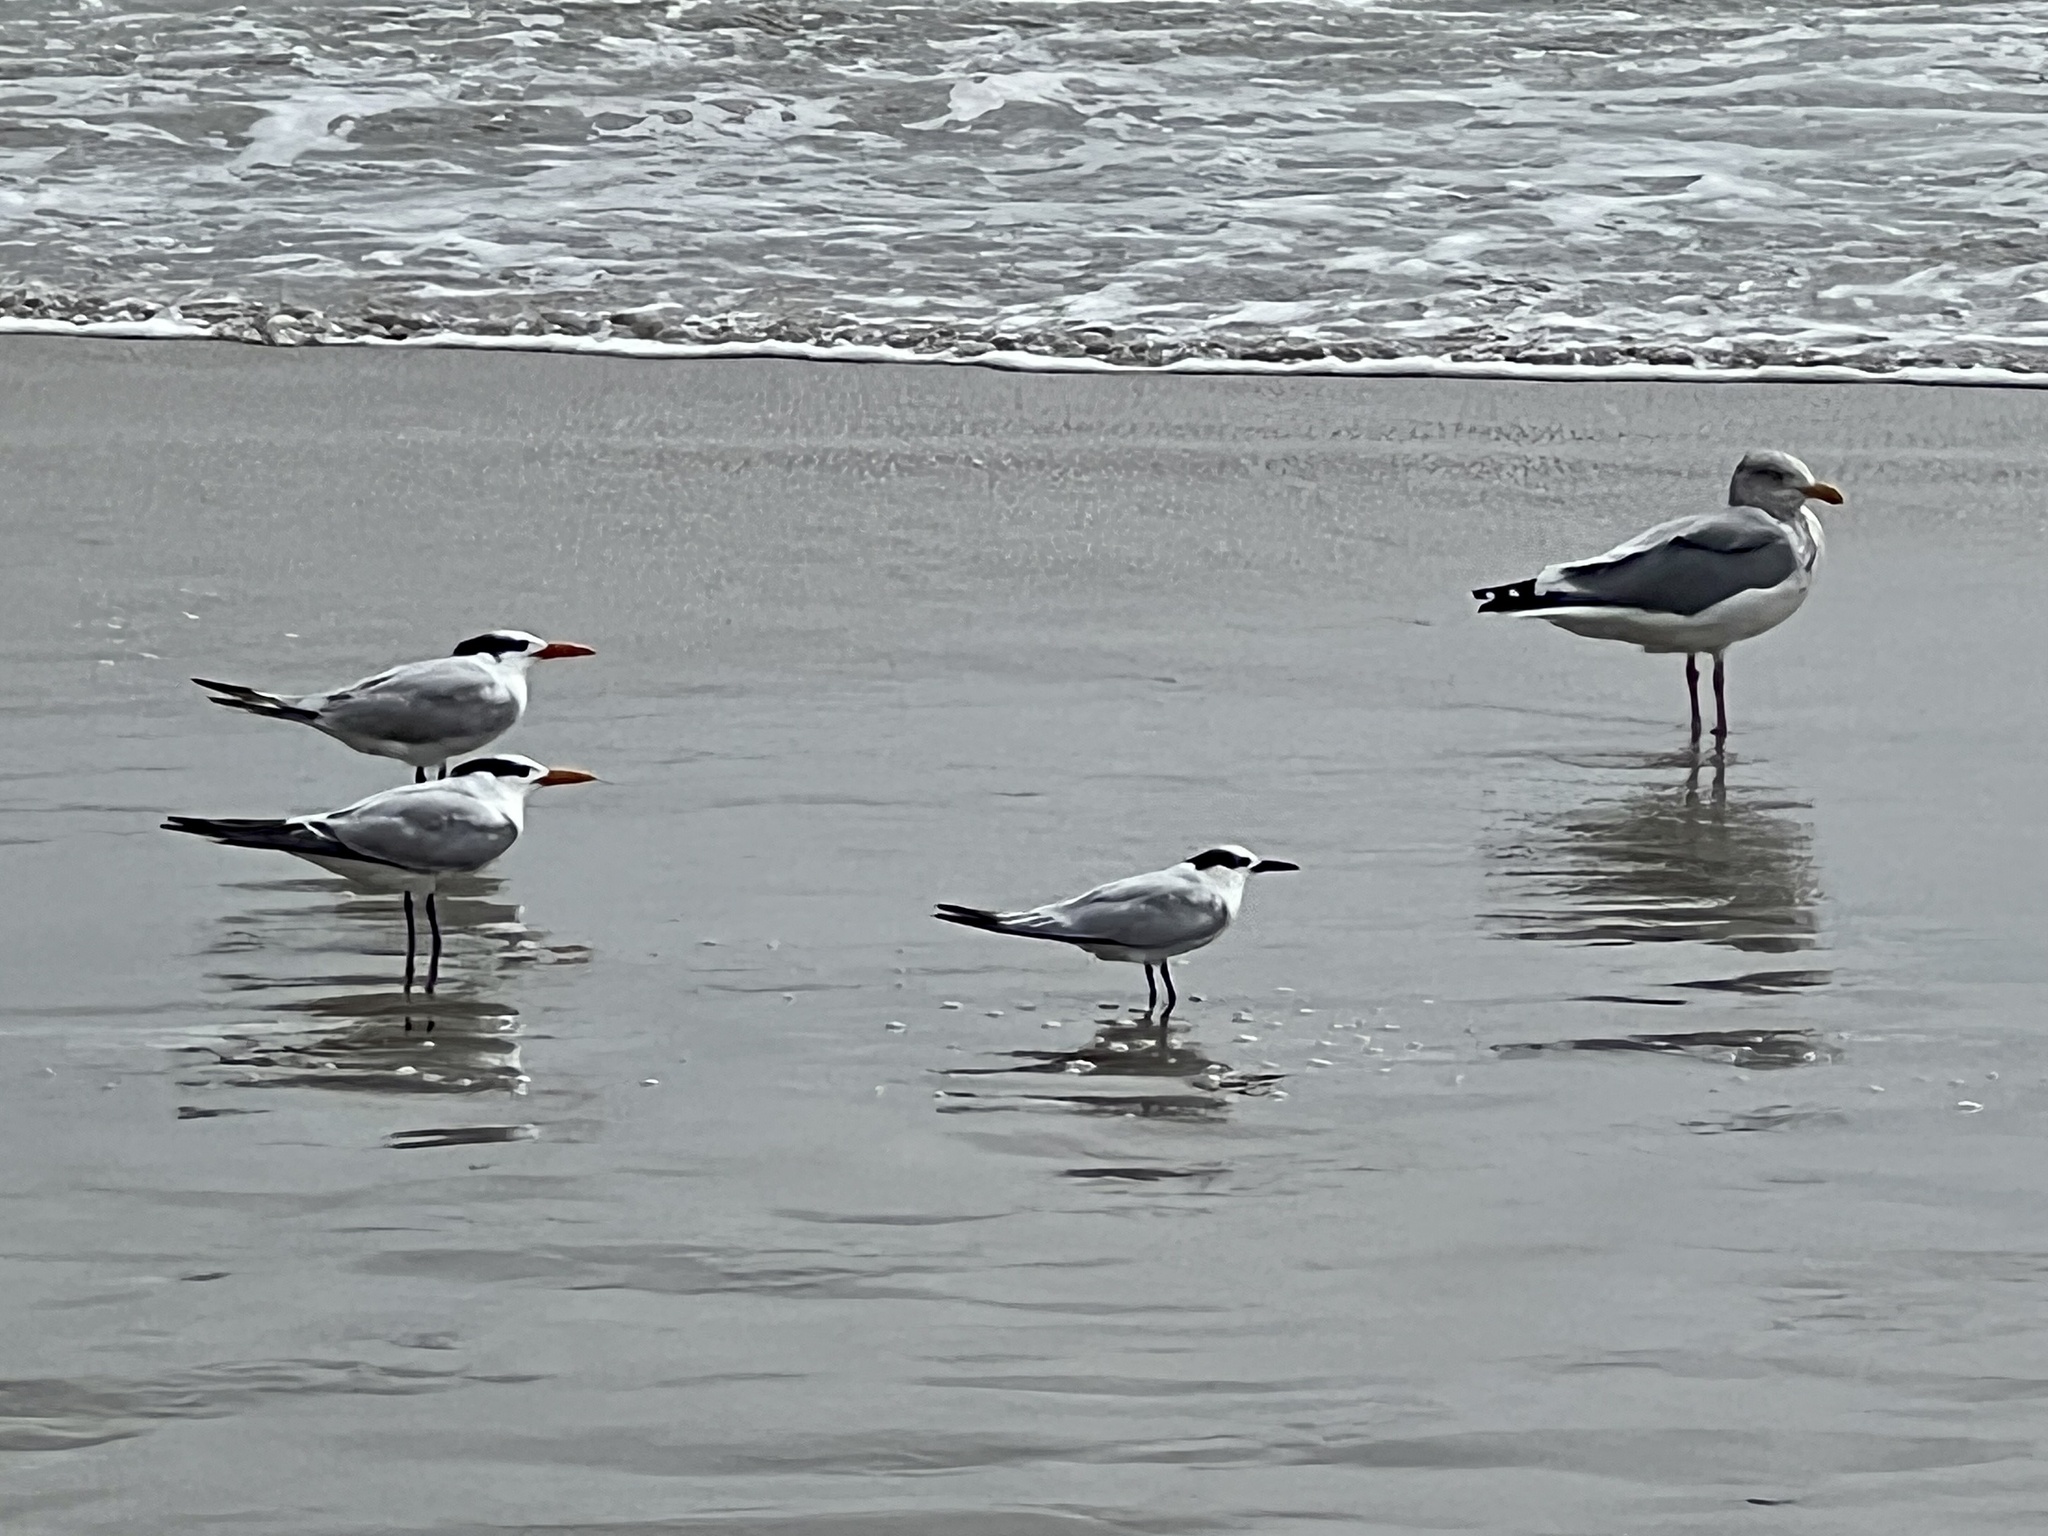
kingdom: Animalia
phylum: Chordata
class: Aves
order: Charadriiformes
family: Laridae
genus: Larus
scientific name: Larus argentatus
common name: Herring gull
